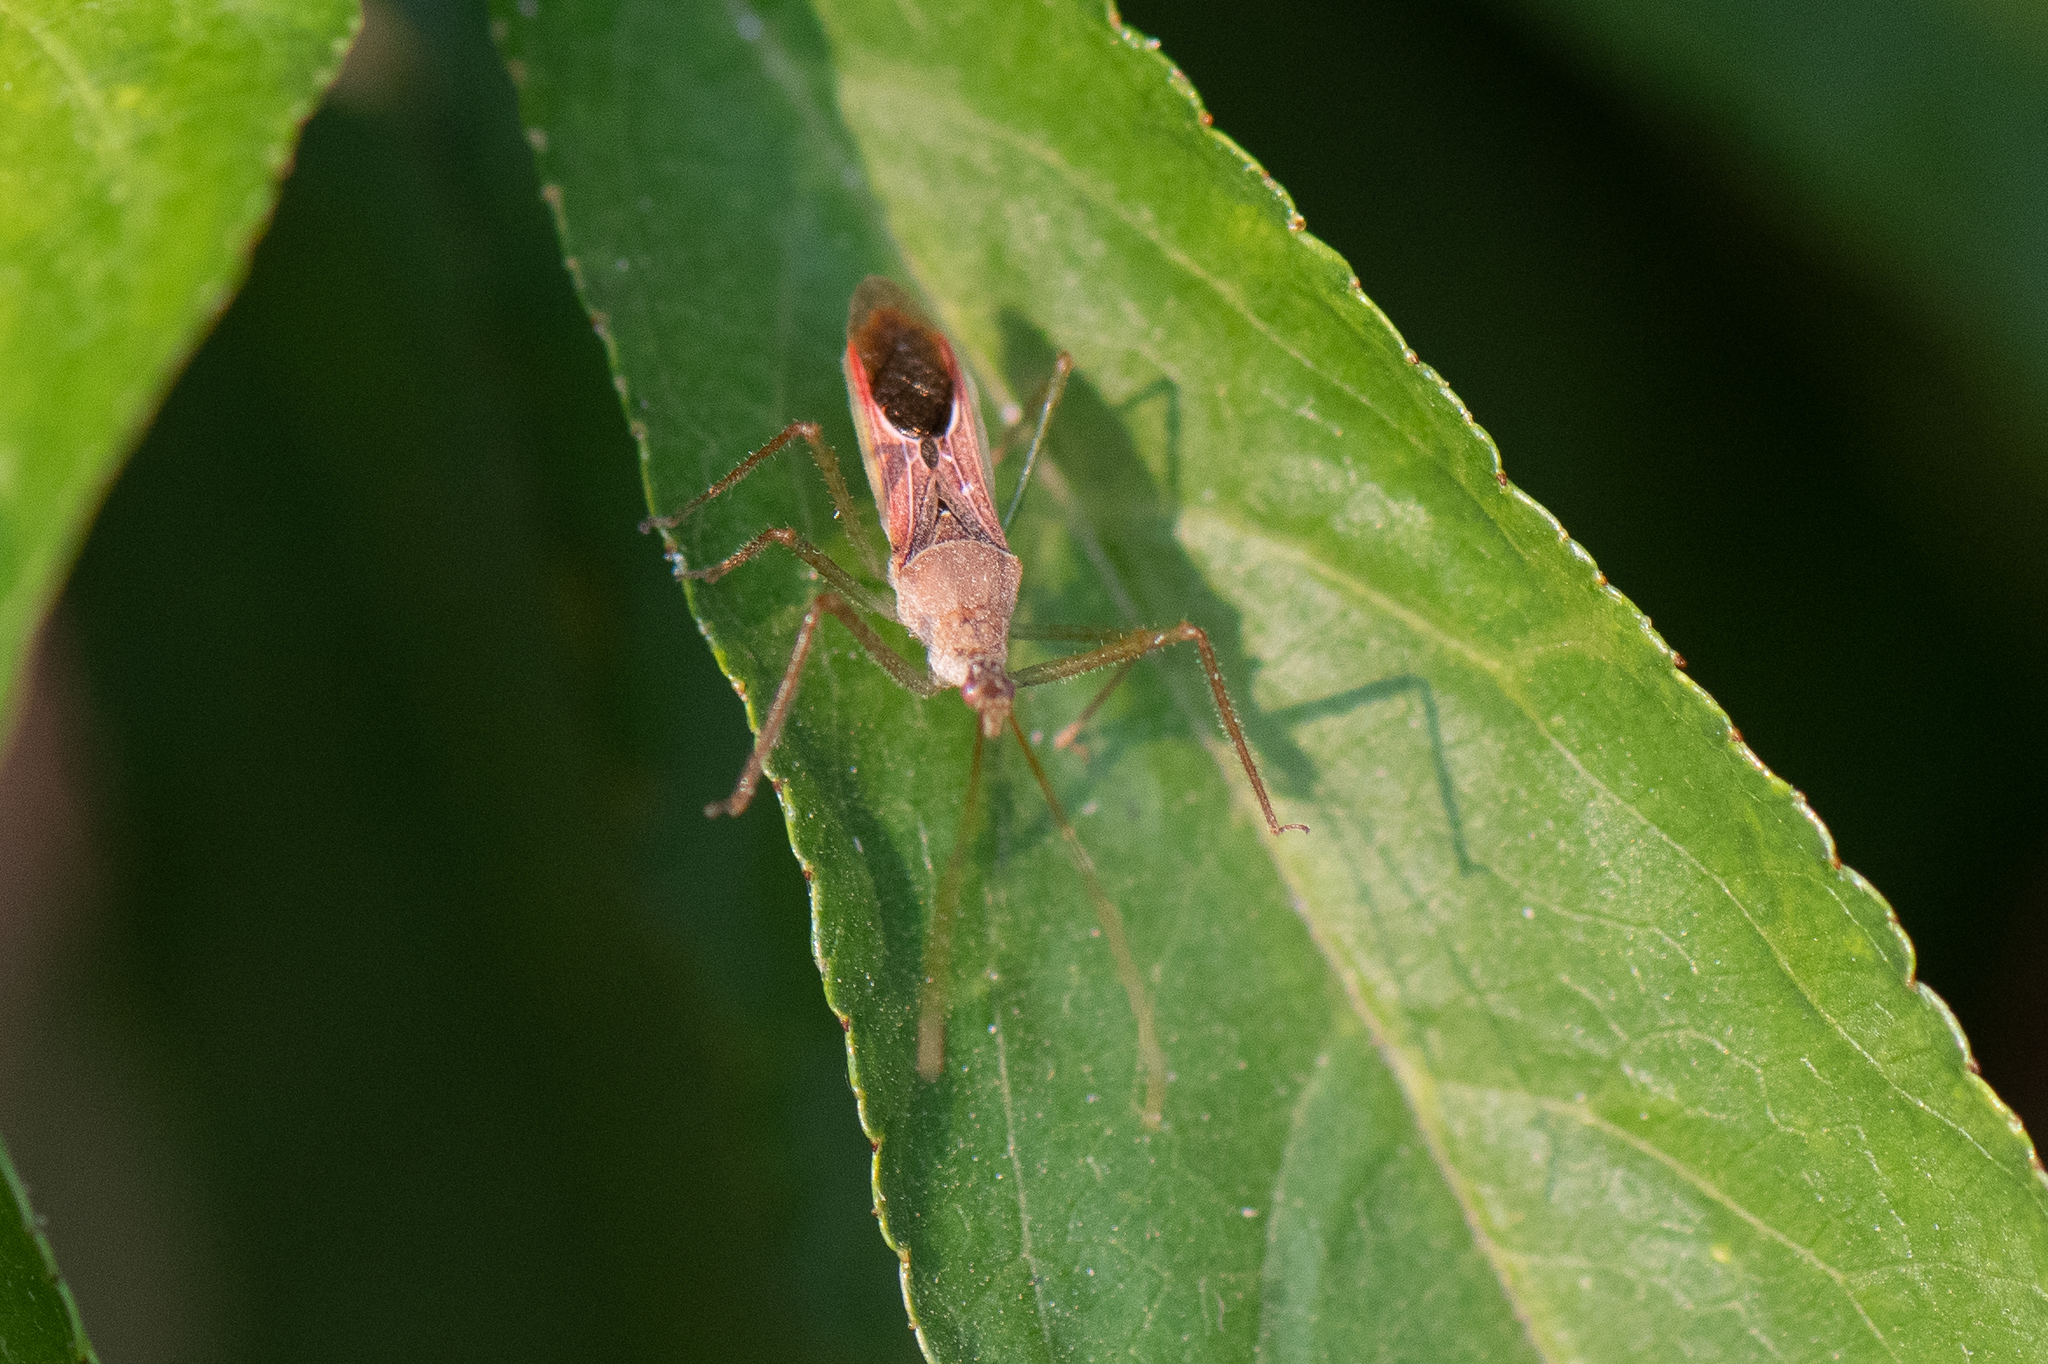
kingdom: Animalia
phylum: Arthropoda
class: Insecta
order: Hemiptera
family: Reduviidae
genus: Zelus
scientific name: Zelus renardii
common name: Assassin bug
